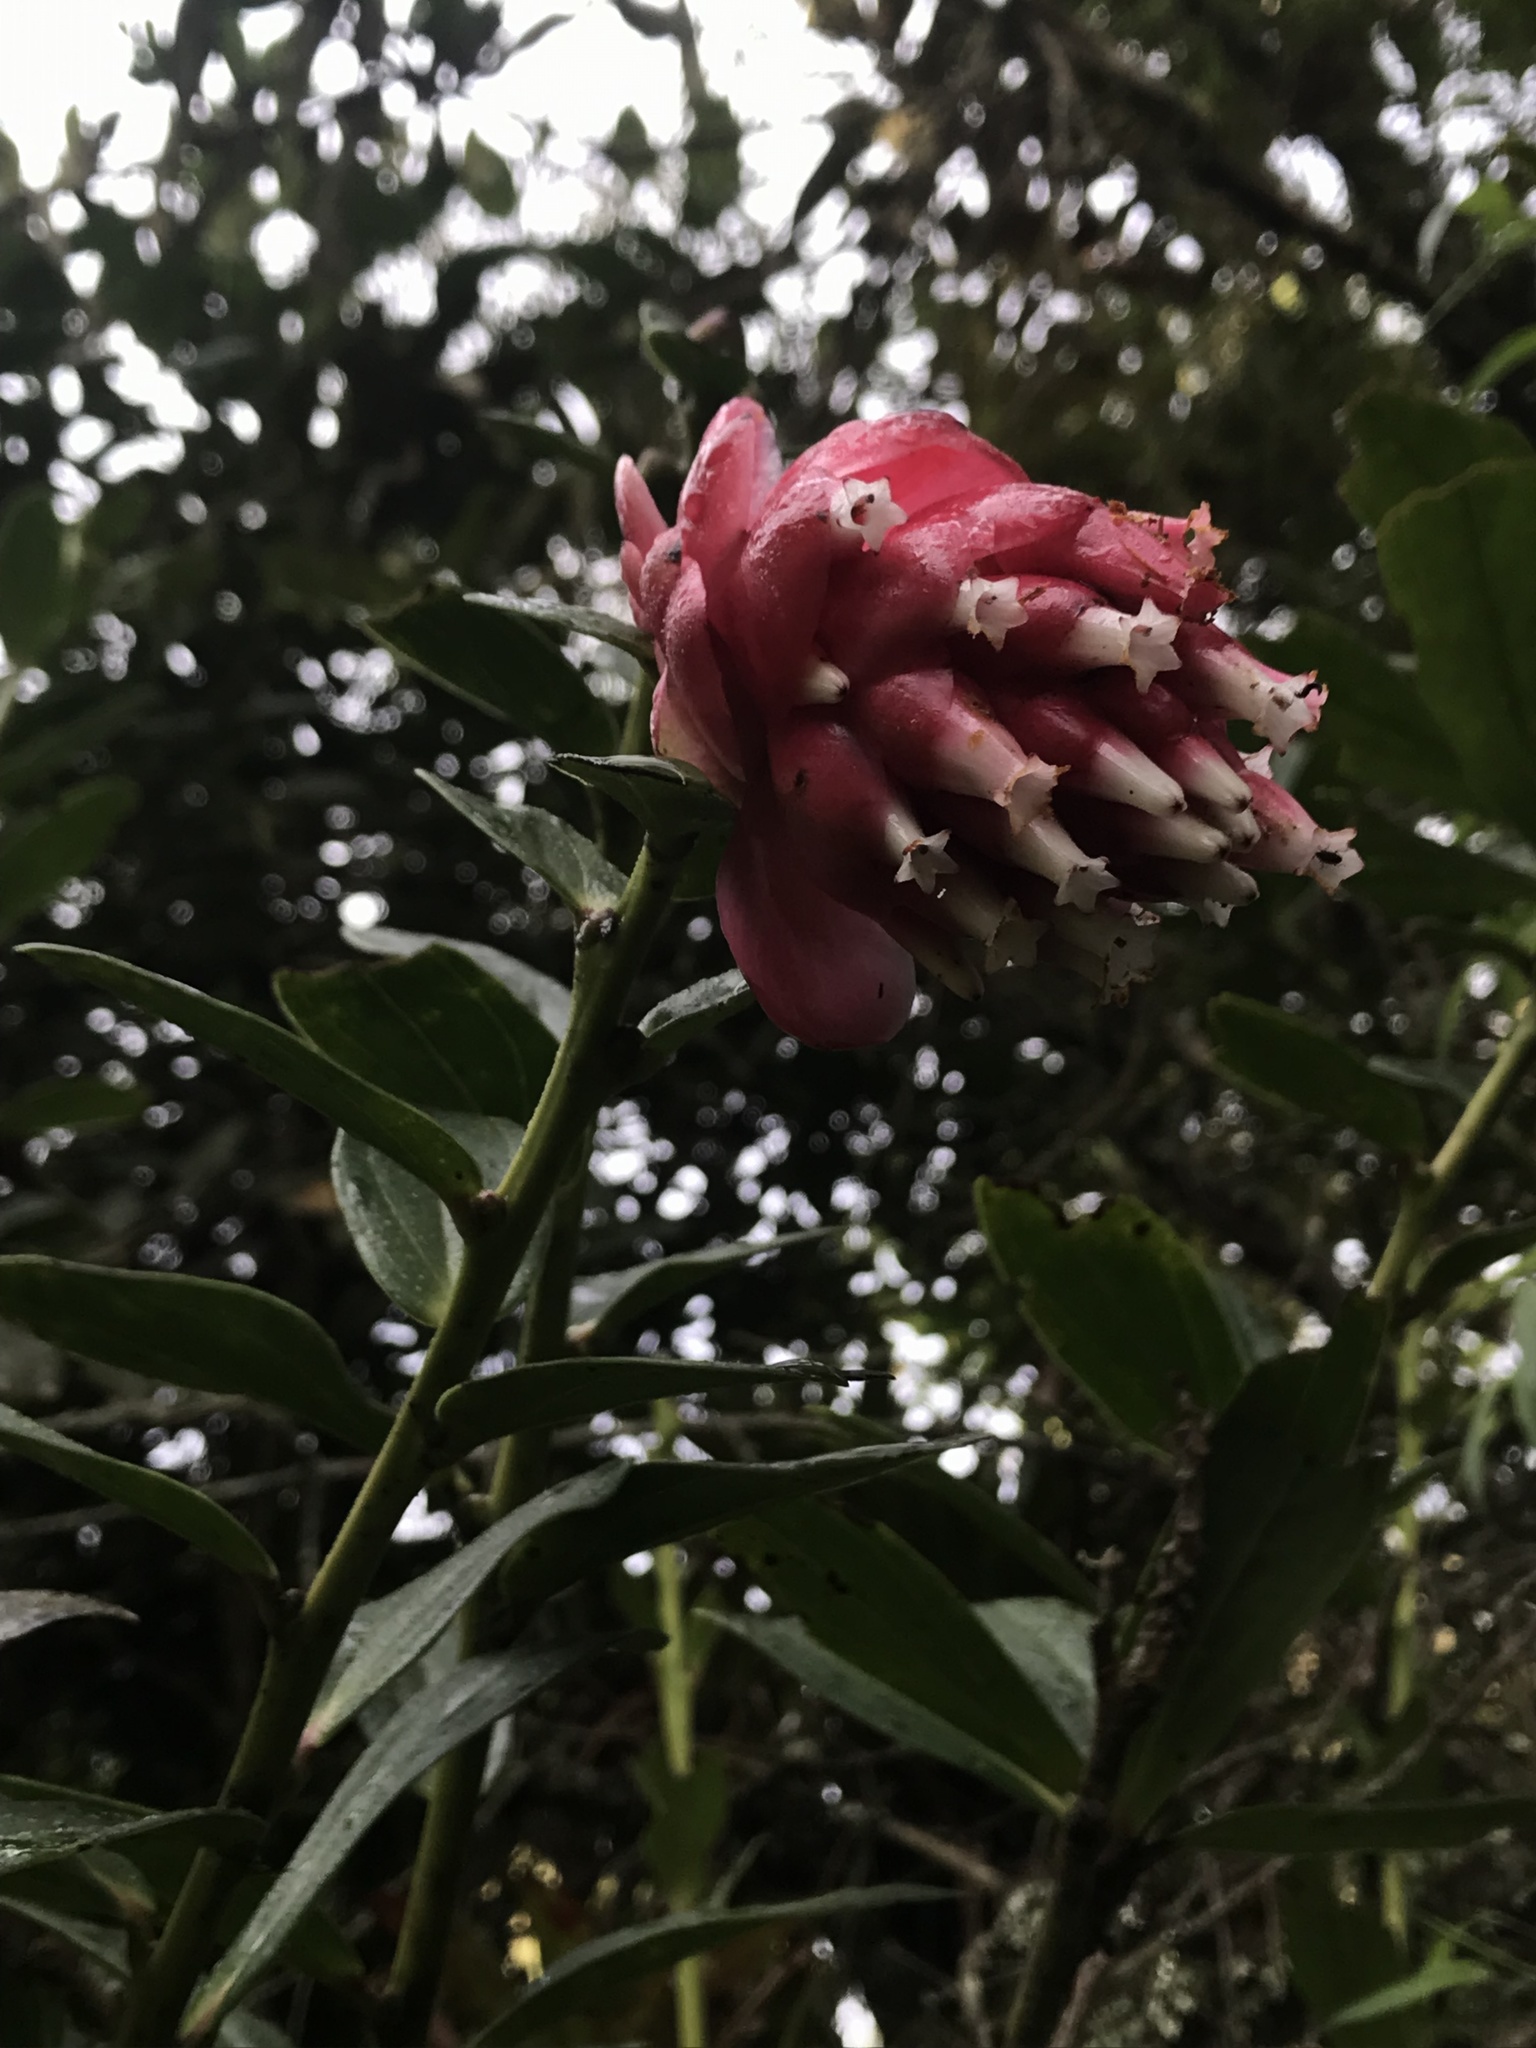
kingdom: Plantae
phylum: Tracheophyta
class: Magnoliopsida
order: Ericales
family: Ericaceae
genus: Cavendishia
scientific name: Cavendishia nitida
